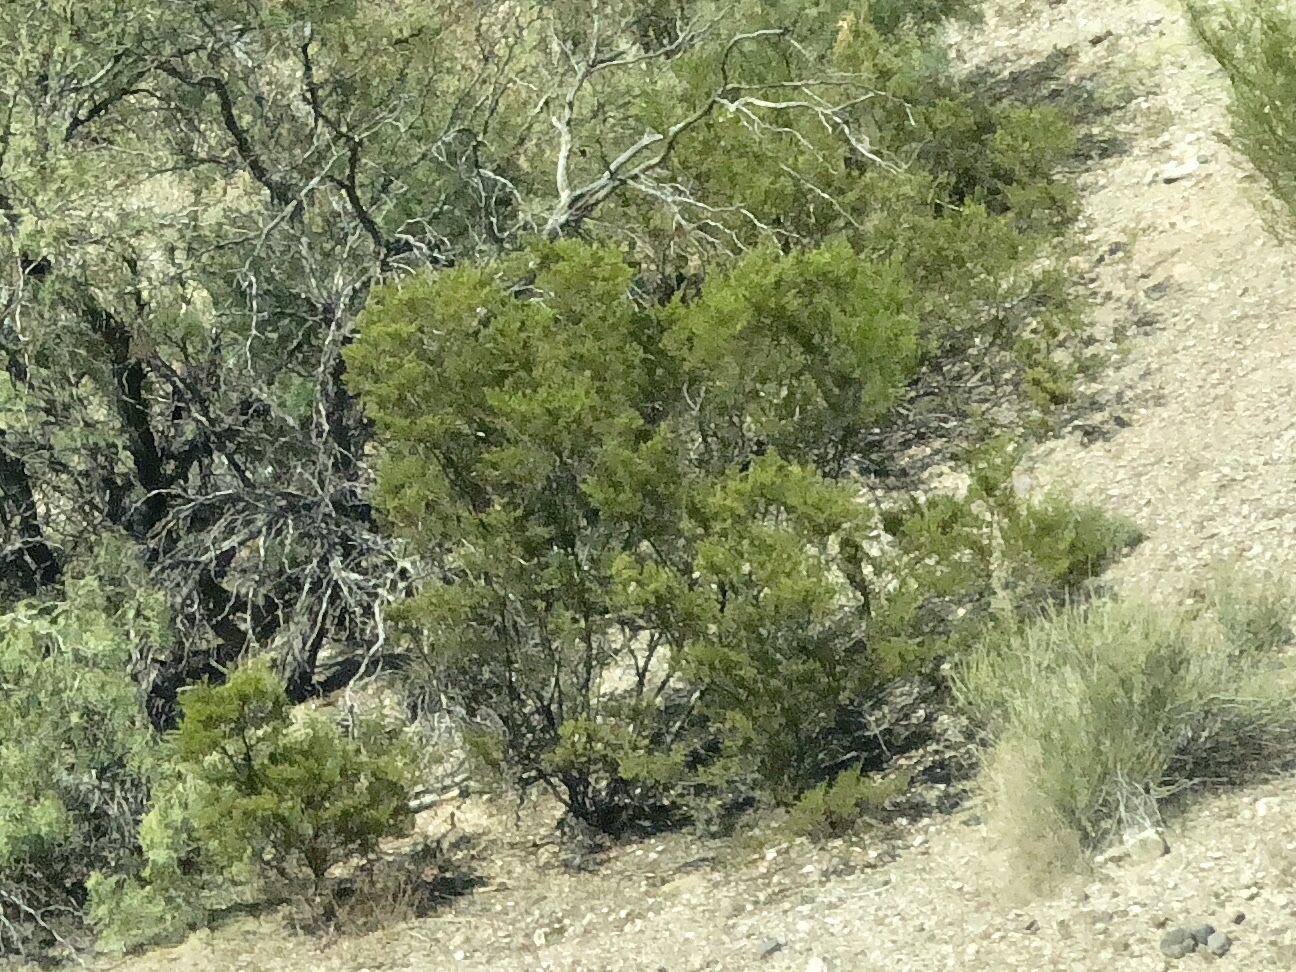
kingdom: Plantae
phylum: Tracheophyta
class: Magnoliopsida
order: Zygophyllales
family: Zygophyllaceae
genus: Larrea
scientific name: Larrea tridentata
